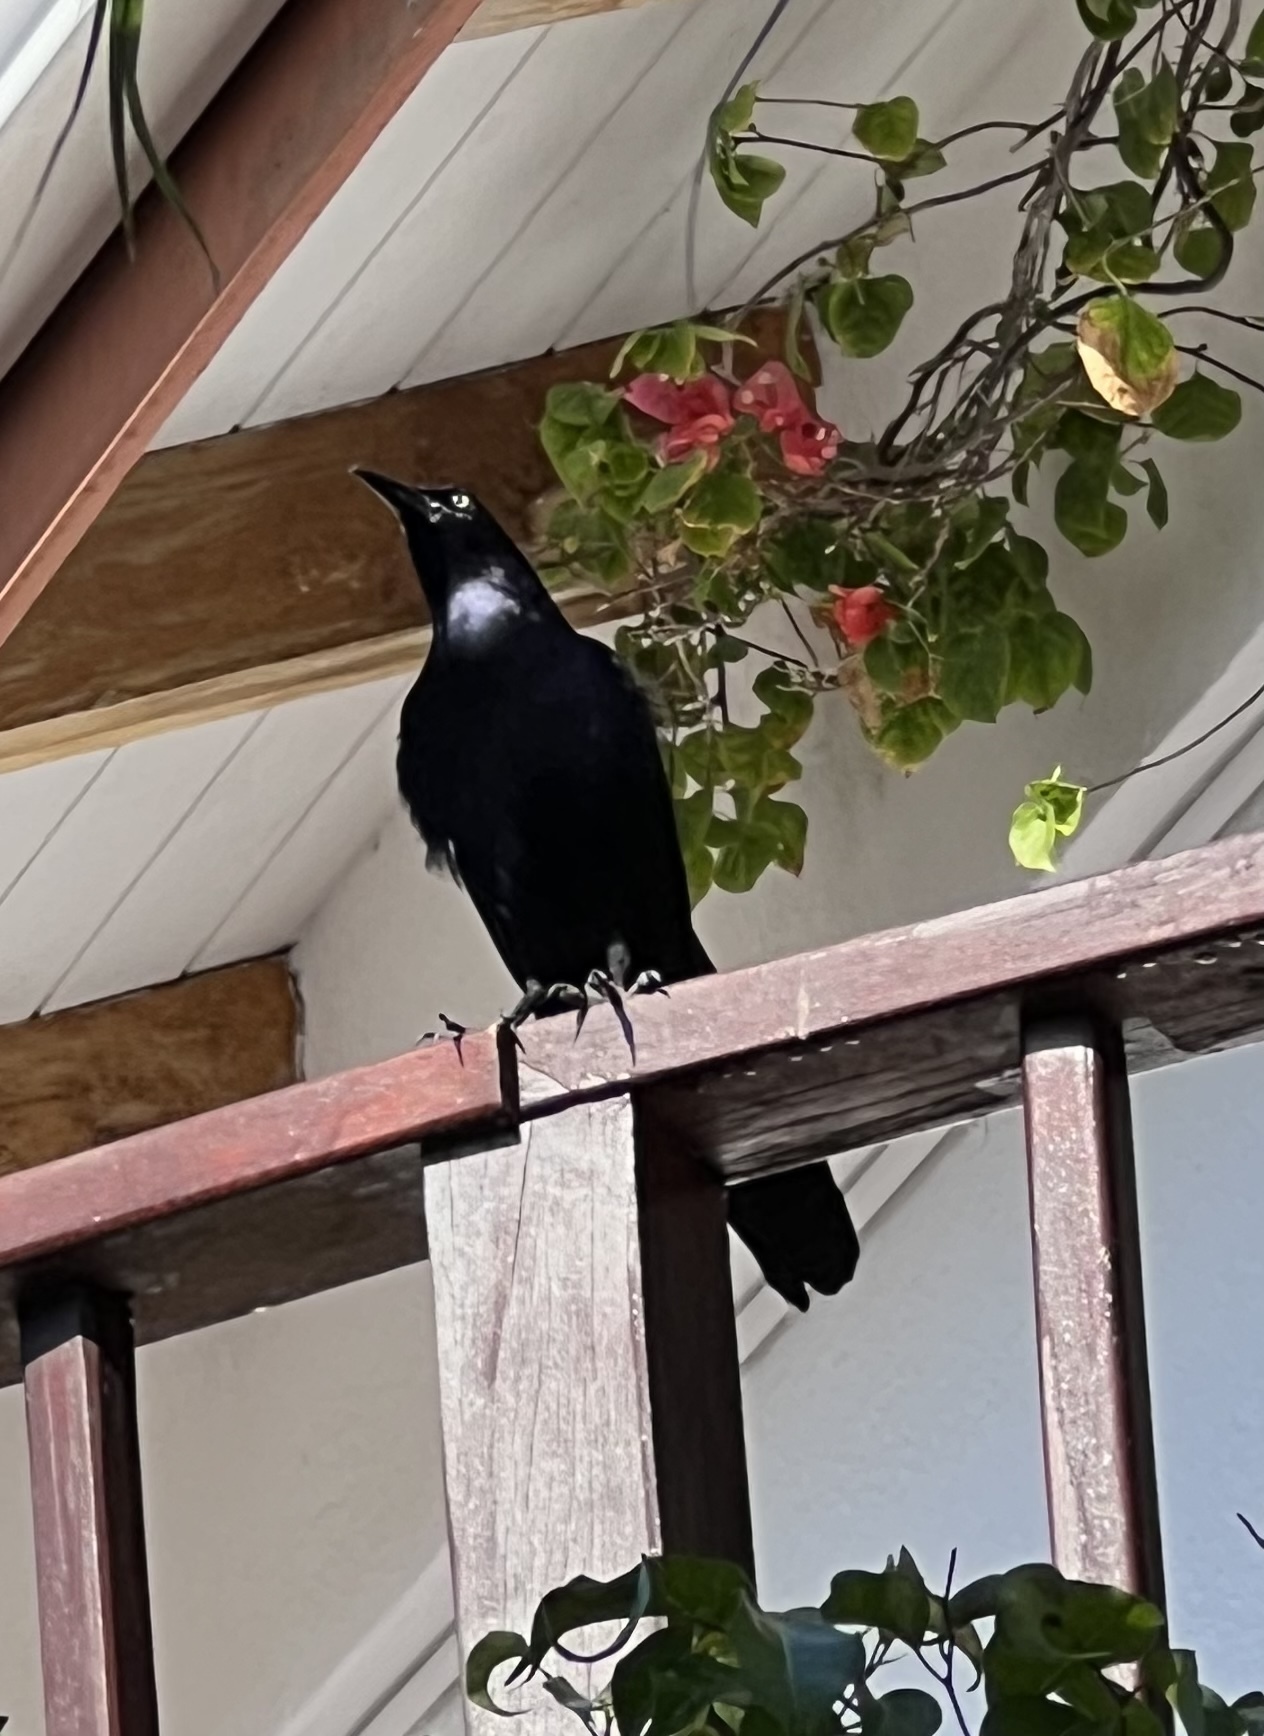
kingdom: Animalia
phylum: Chordata
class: Aves
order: Passeriformes
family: Icteridae
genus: Quiscalus
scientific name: Quiscalus mexicanus
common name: Great-tailed grackle
